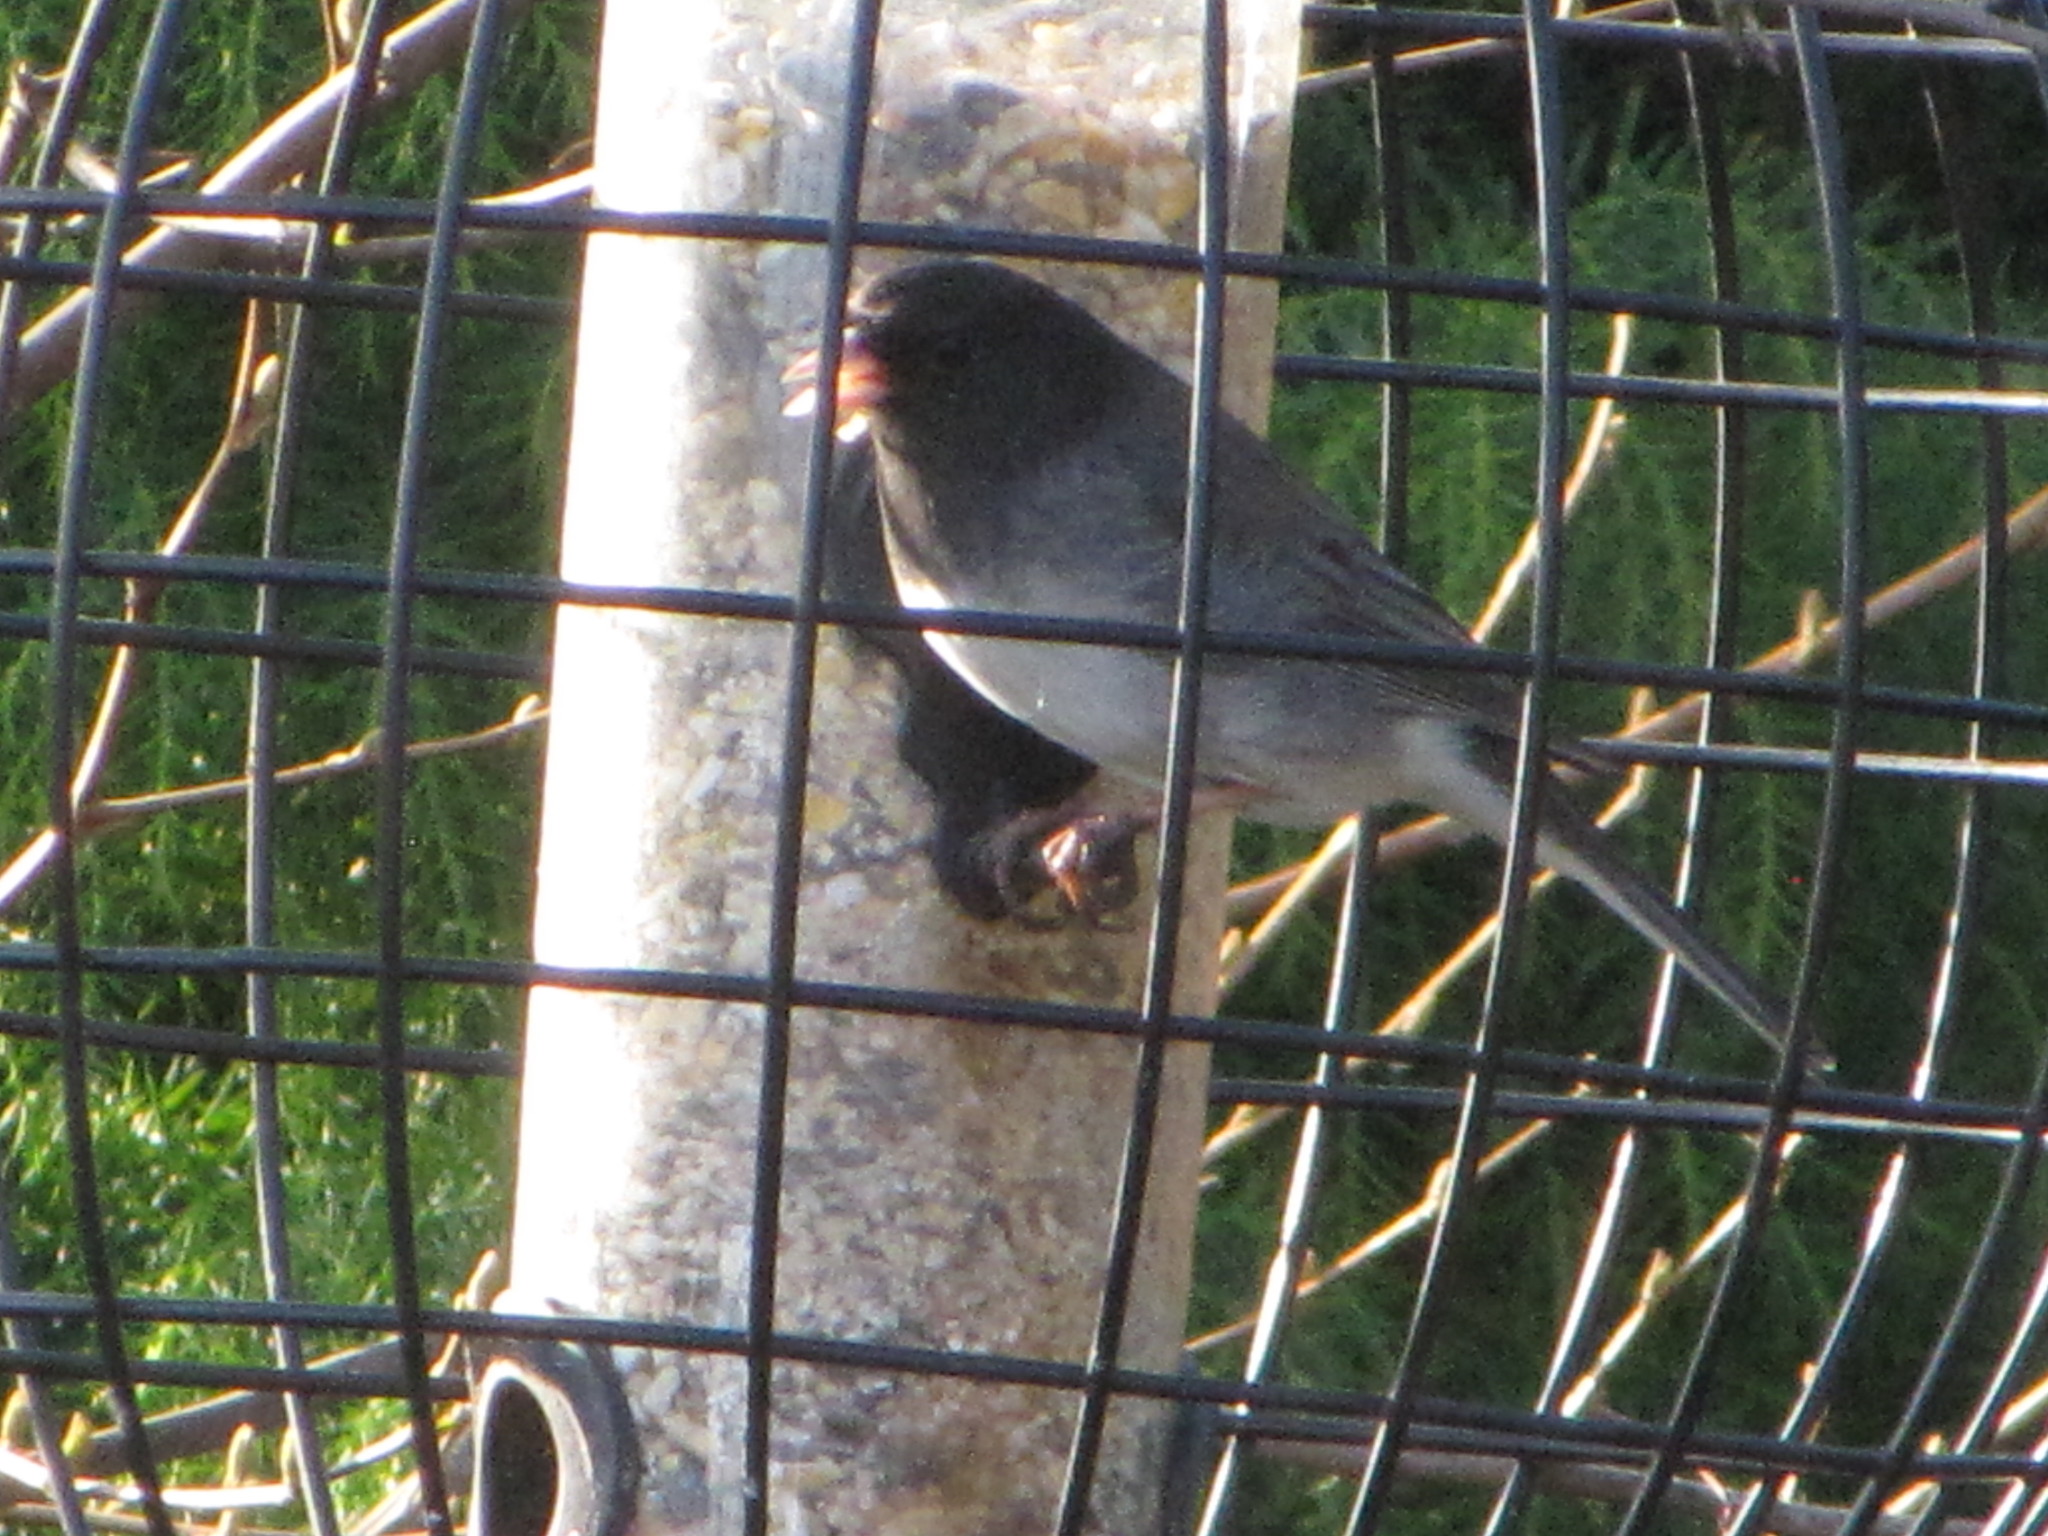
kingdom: Animalia
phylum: Chordata
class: Aves
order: Passeriformes
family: Passerellidae
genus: Junco
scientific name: Junco hyemalis
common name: Dark-eyed junco
